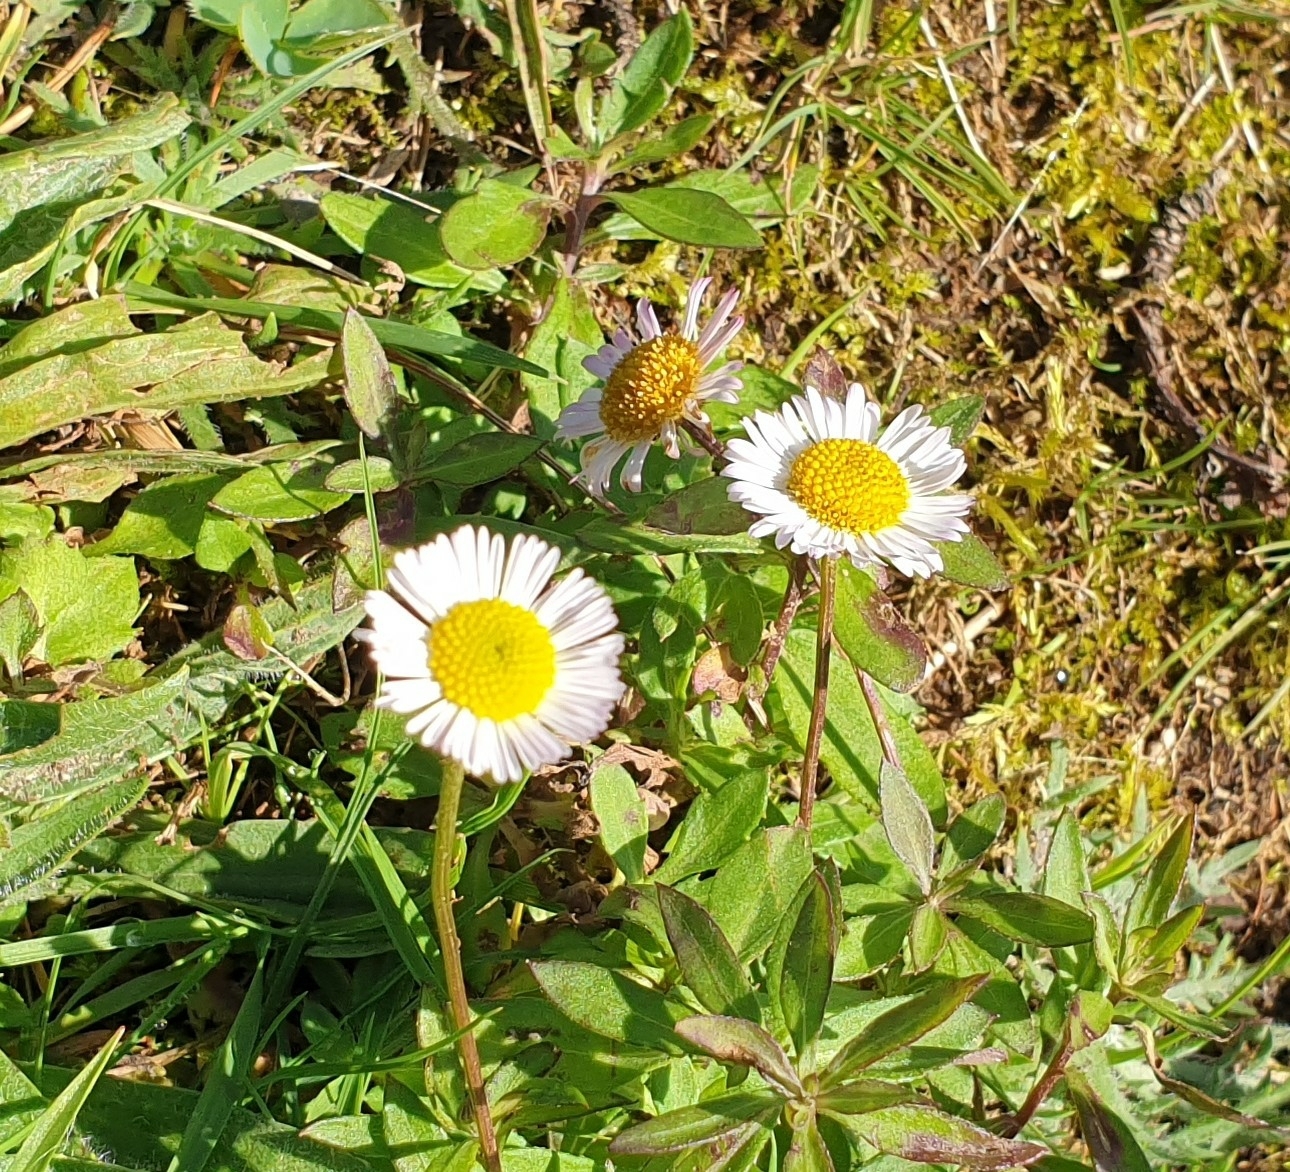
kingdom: Plantae
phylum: Tracheophyta
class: Magnoliopsida
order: Asterales
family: Asteraceae
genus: Erigeron
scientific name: Erigeron karvinskianus
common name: Mexican fleabane
